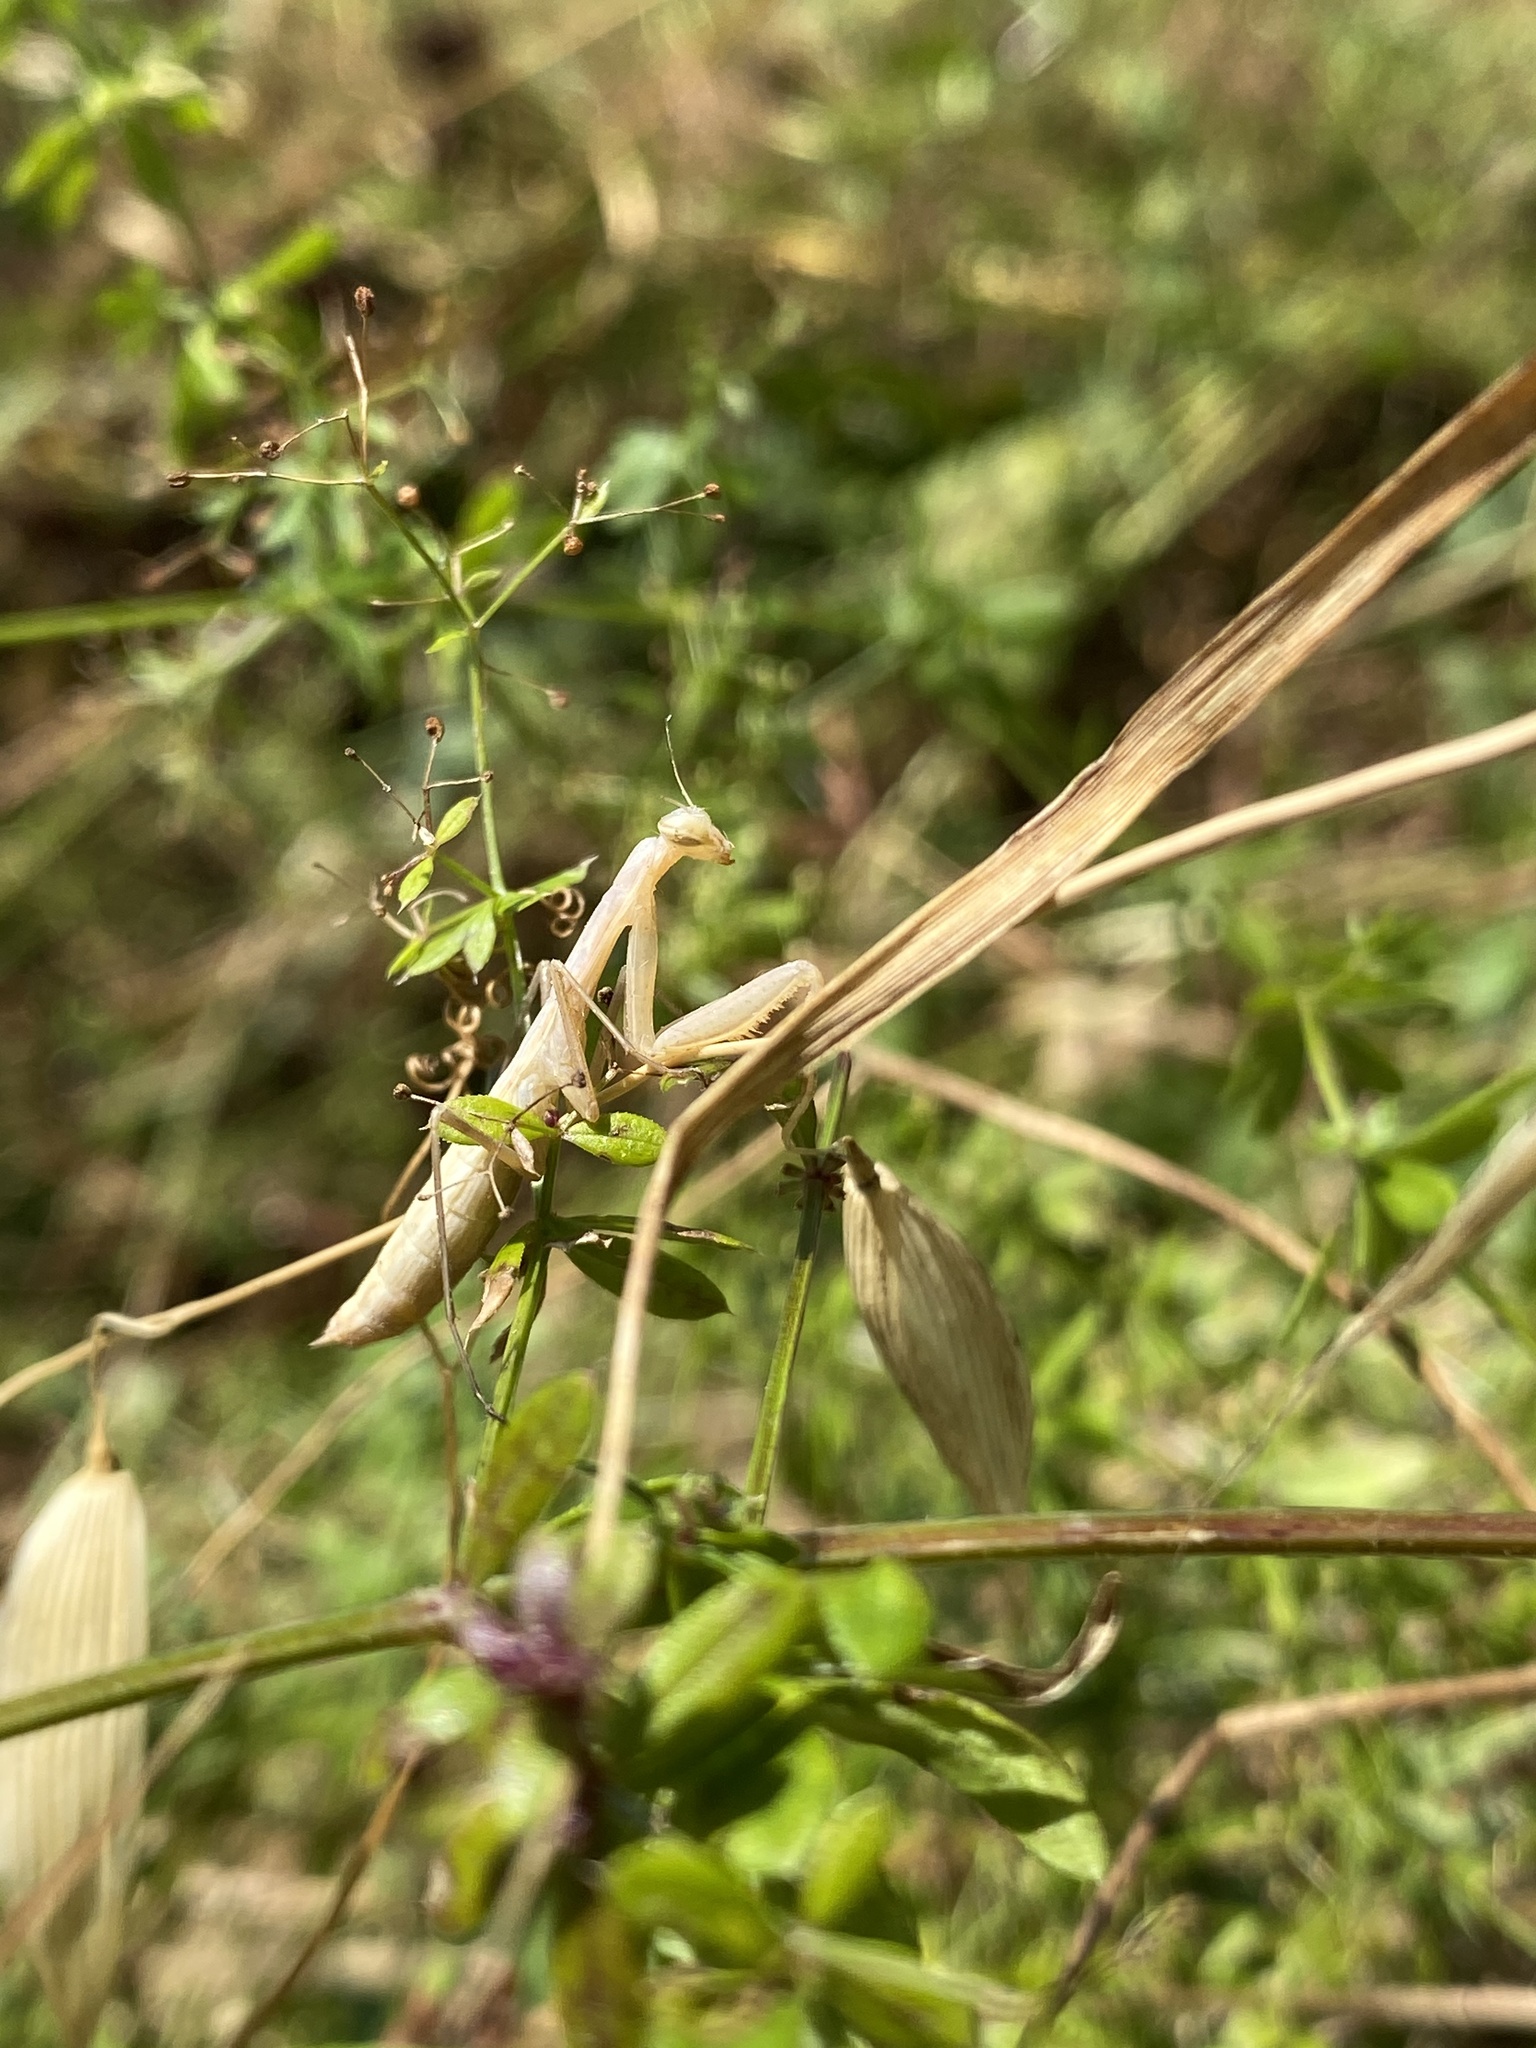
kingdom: Animalia
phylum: Arthropoda
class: Insecta
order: Mantodea
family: Mantidae
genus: Mantis
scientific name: Mantis religiosa
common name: Praying mantis
